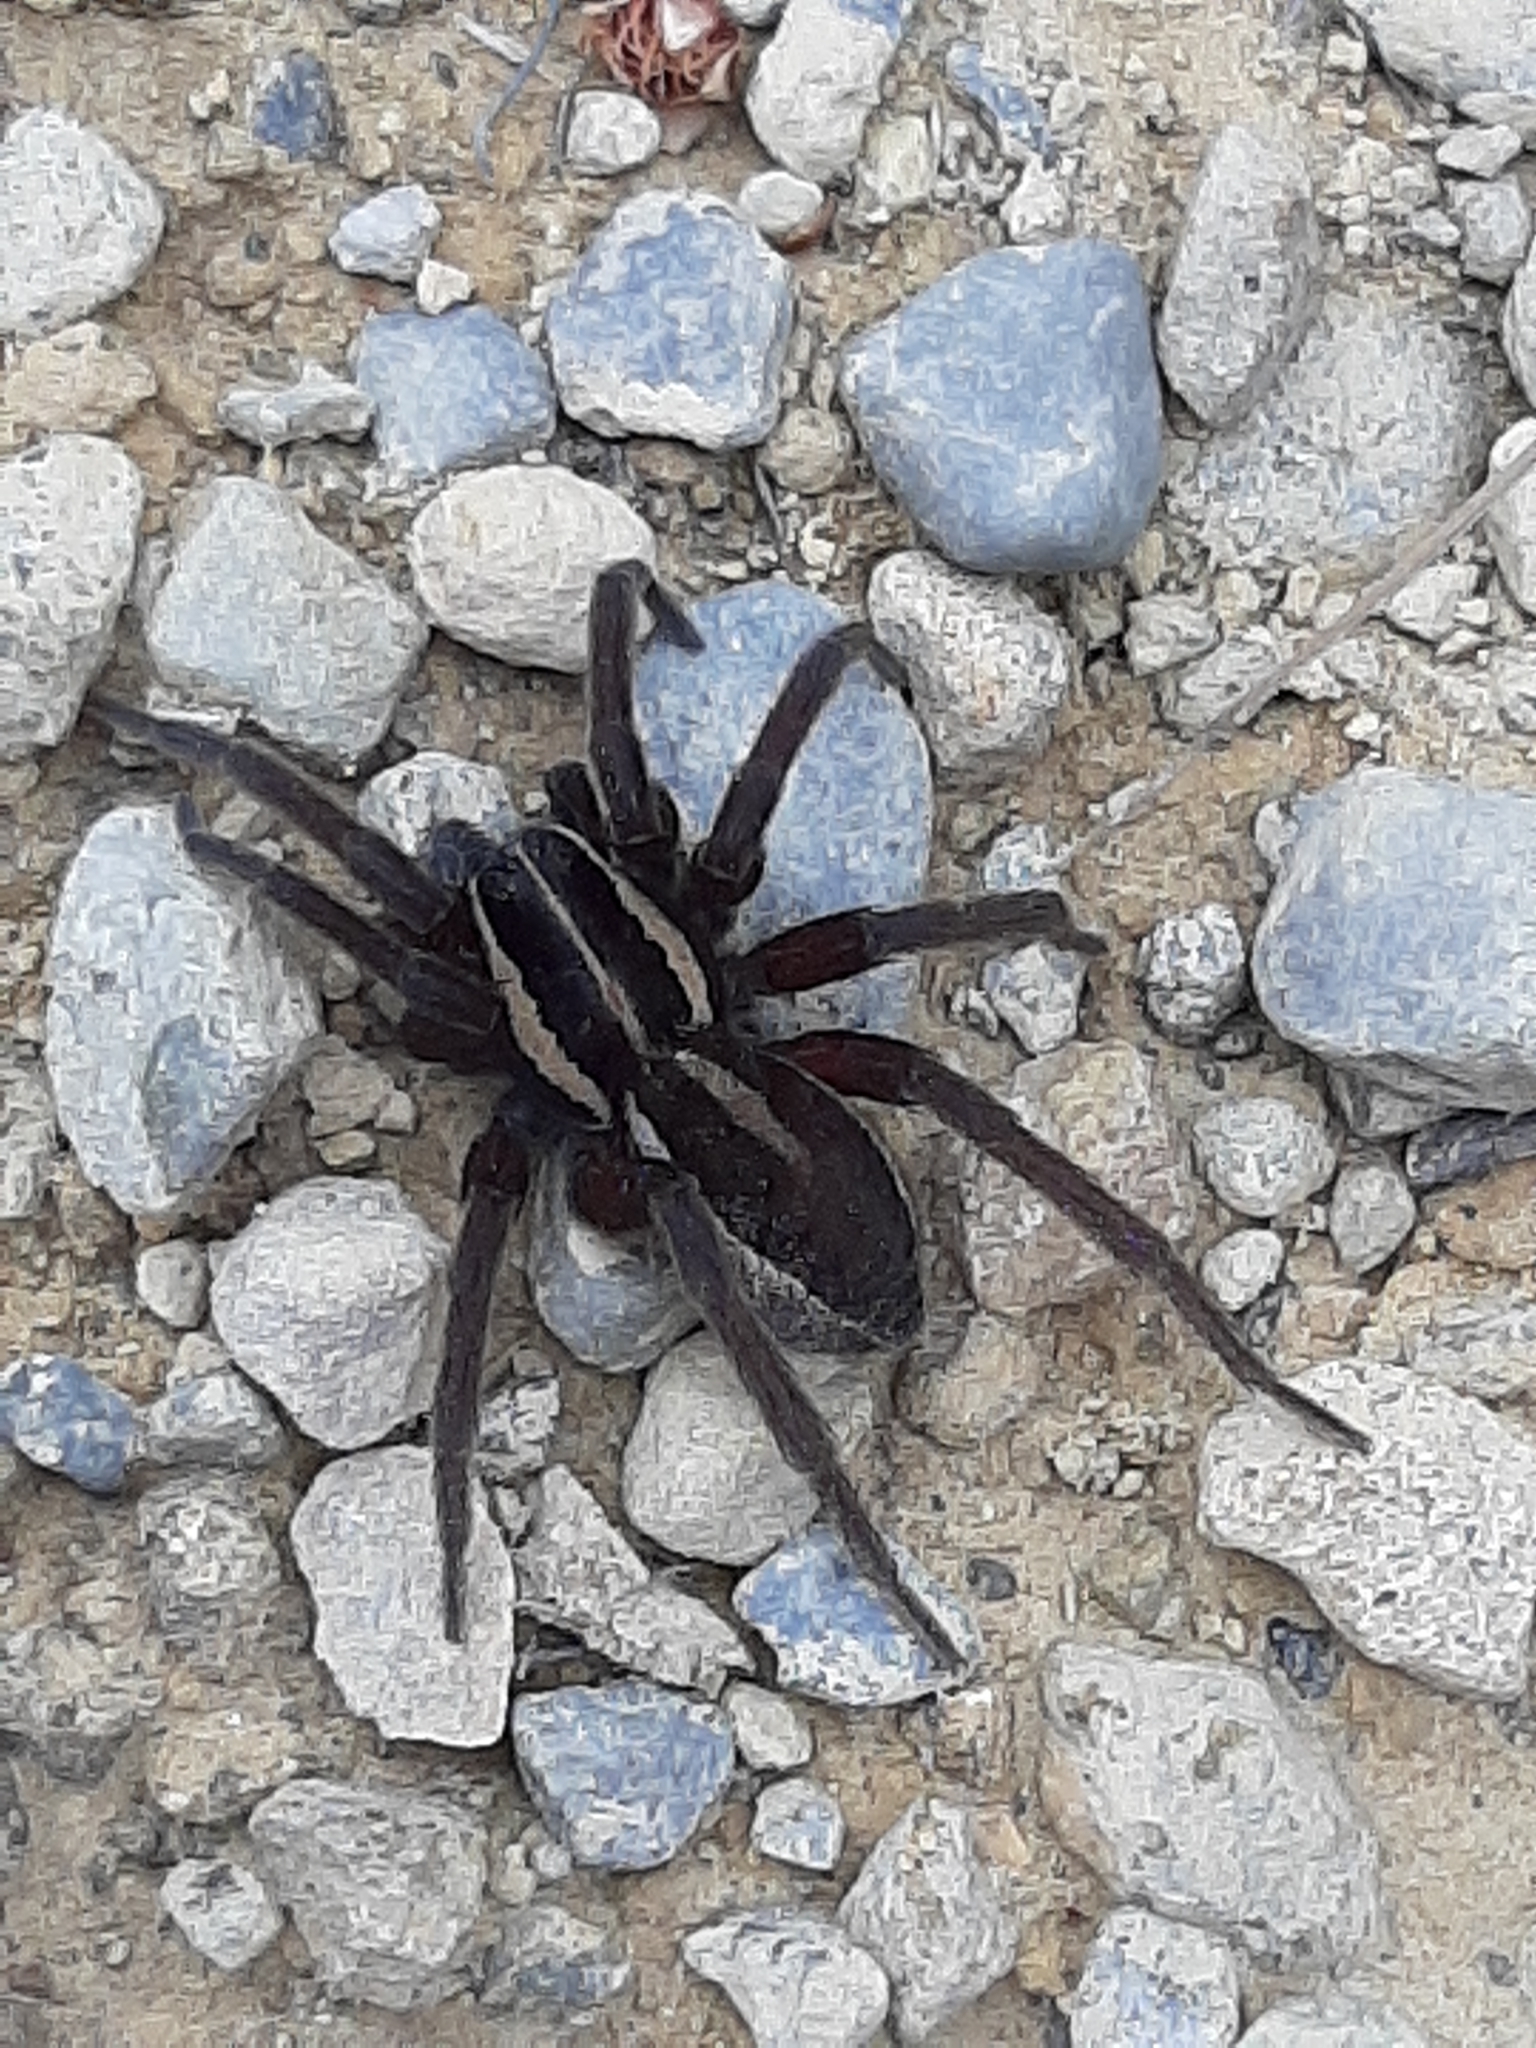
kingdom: Animalia
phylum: Arthropoda
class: Arachnida
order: Araneae
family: Pisauridae
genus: Dolomedes
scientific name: Dolomedes minor
